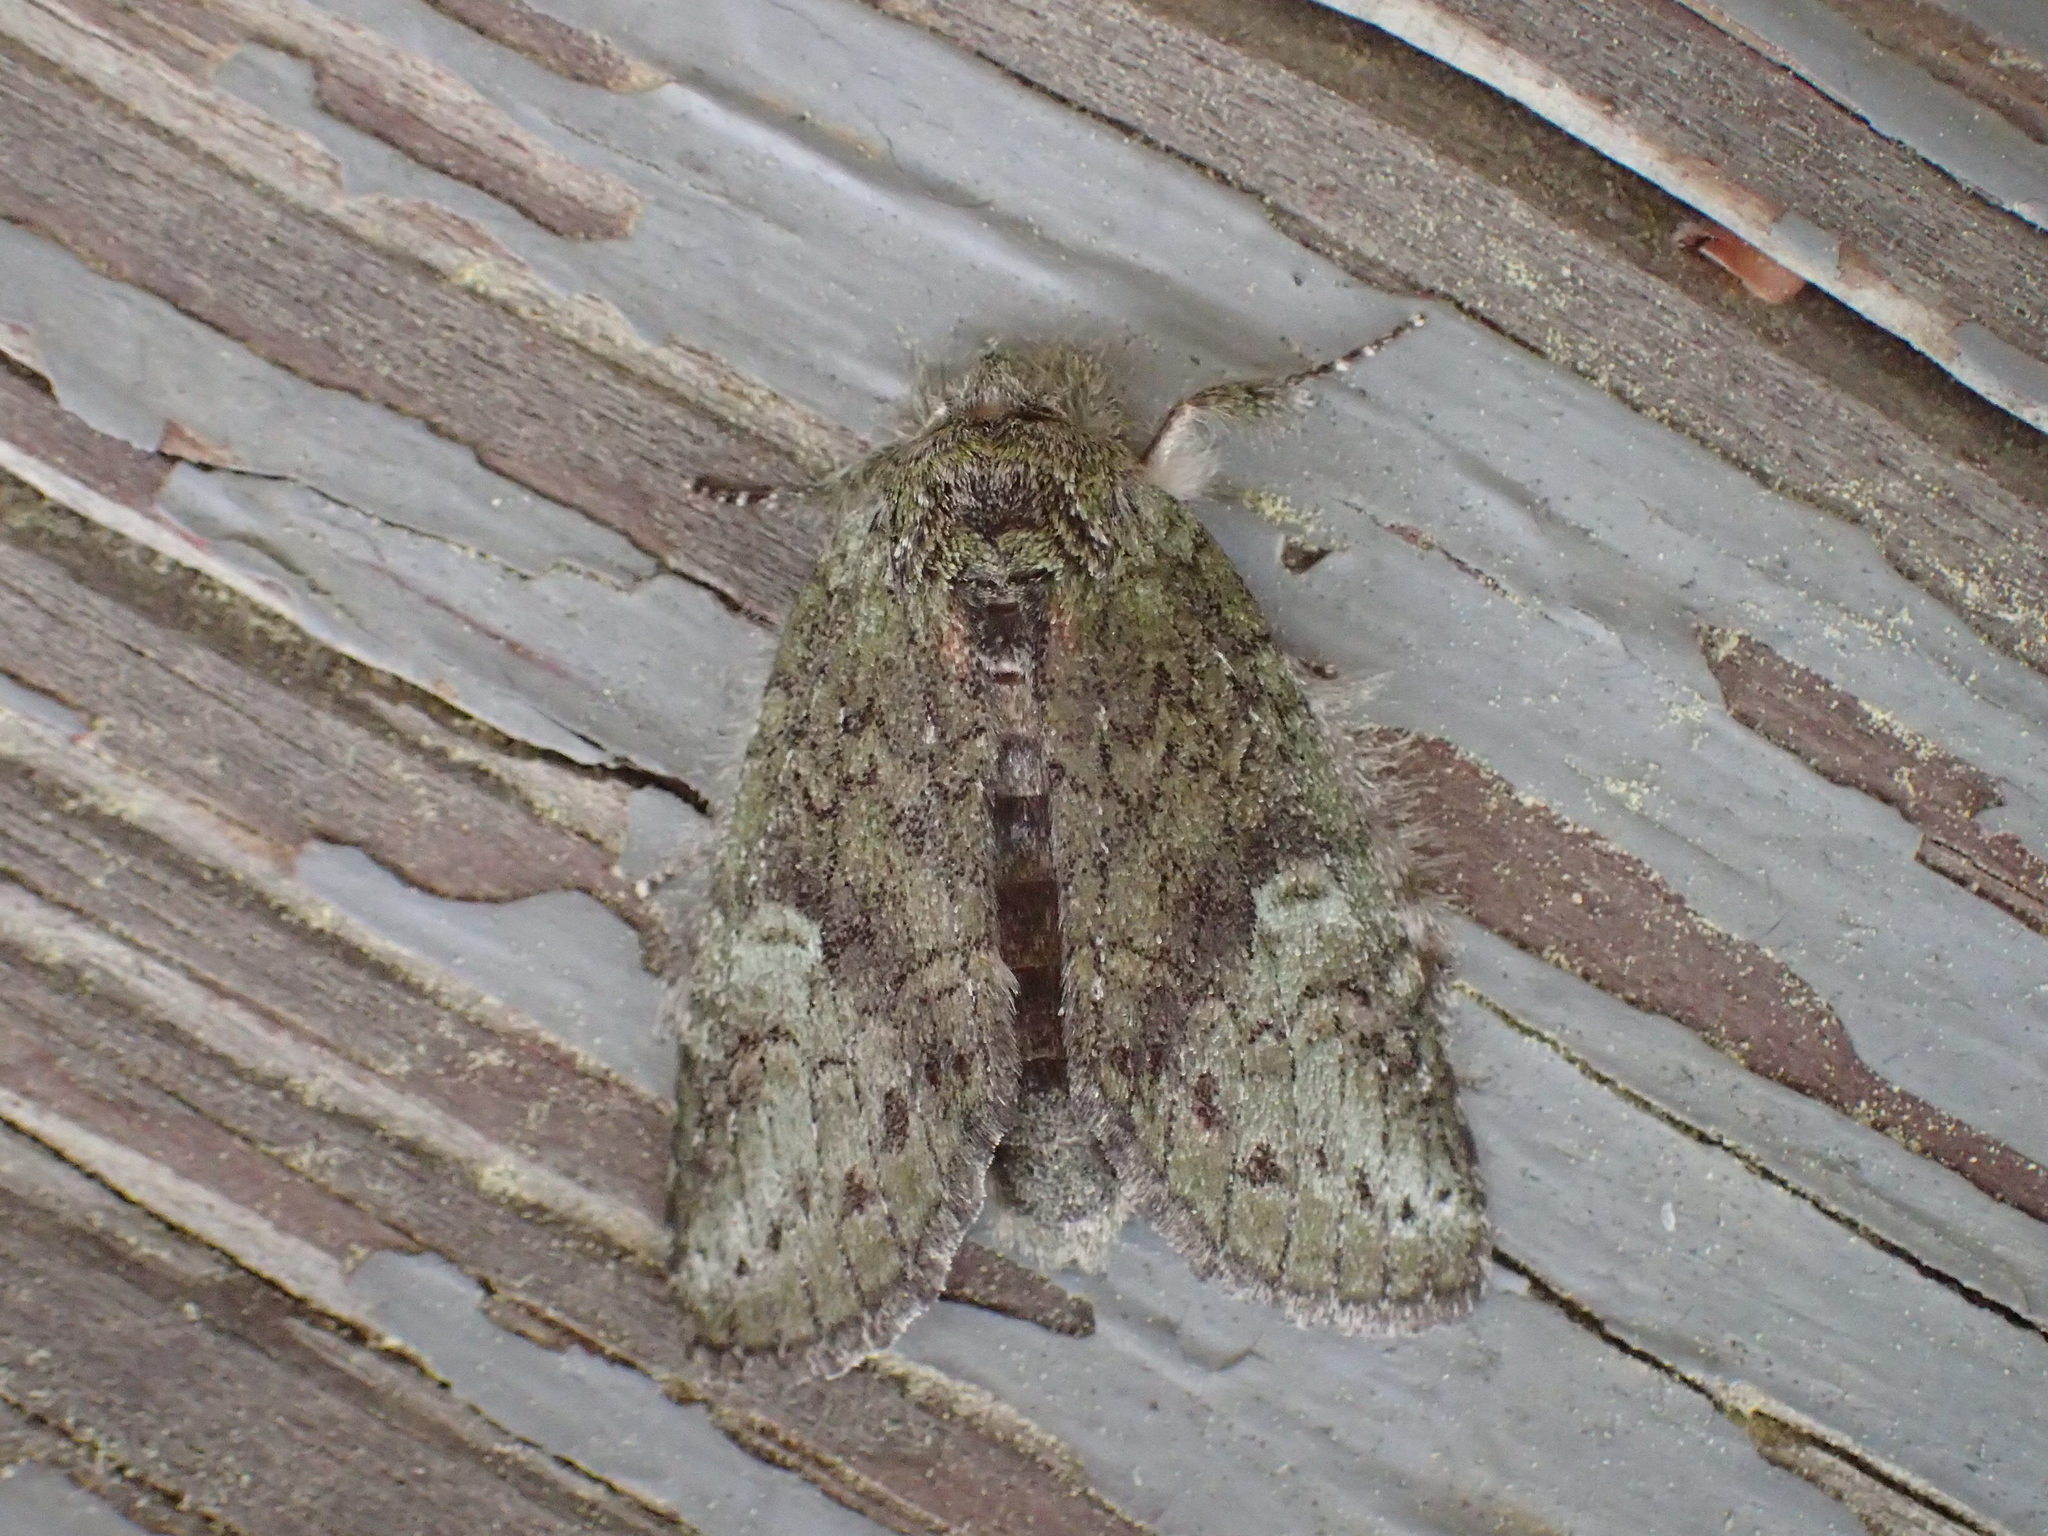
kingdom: Animalia
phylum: Arthropoda
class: Insecta
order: Lepidoptera
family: Notodontidae
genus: Disphragis
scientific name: Disphragis Cecrita guttivitta
